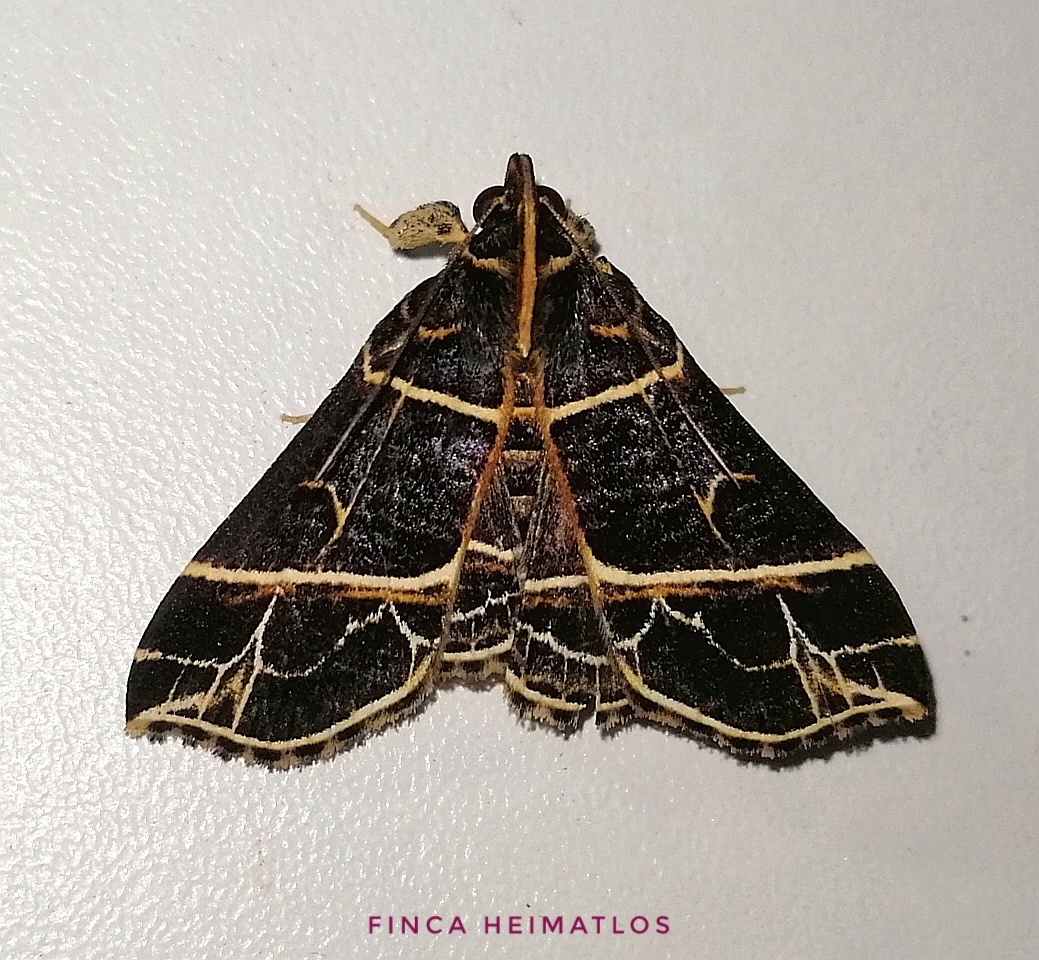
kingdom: Animalia
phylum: Arthropoda
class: Insecta
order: Lepidoptera
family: Erebidae
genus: Rejectaria
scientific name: Rejectaria niciasalis
